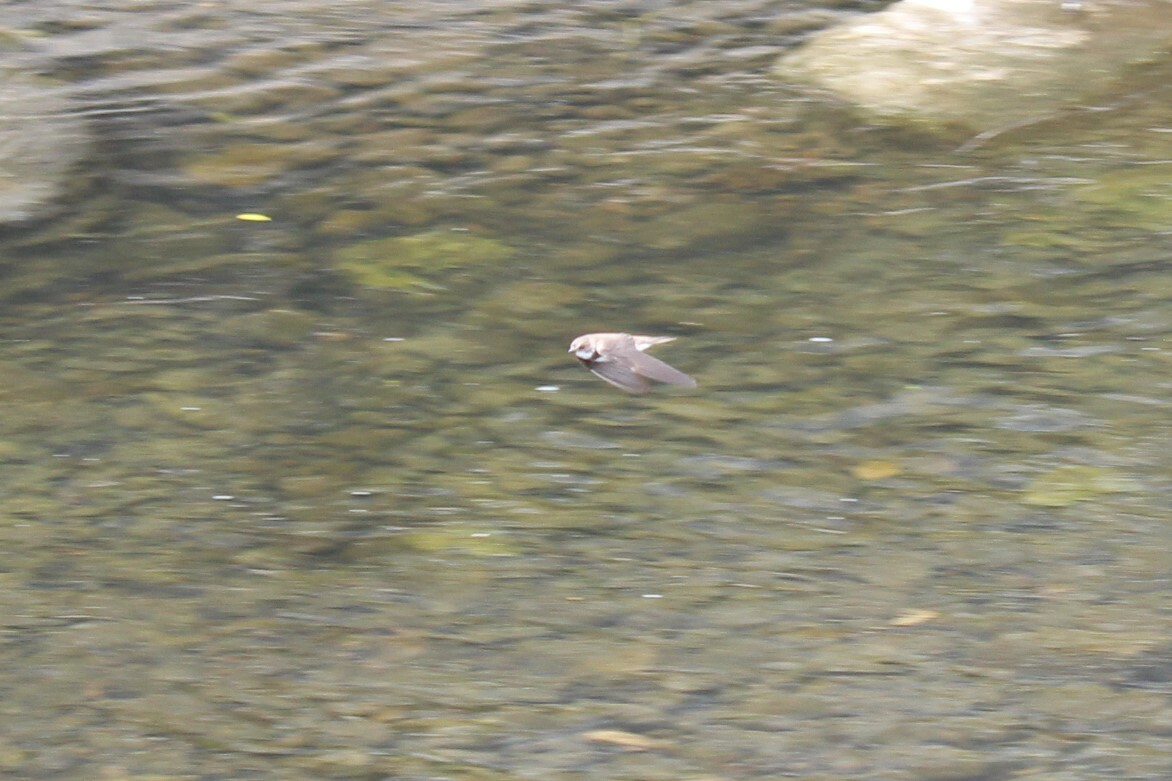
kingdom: Animalia
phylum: Chordata
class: Aves
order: Passeriformes
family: Hirundinidae
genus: Riparia
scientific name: Riparia riparia
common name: Sand martin
